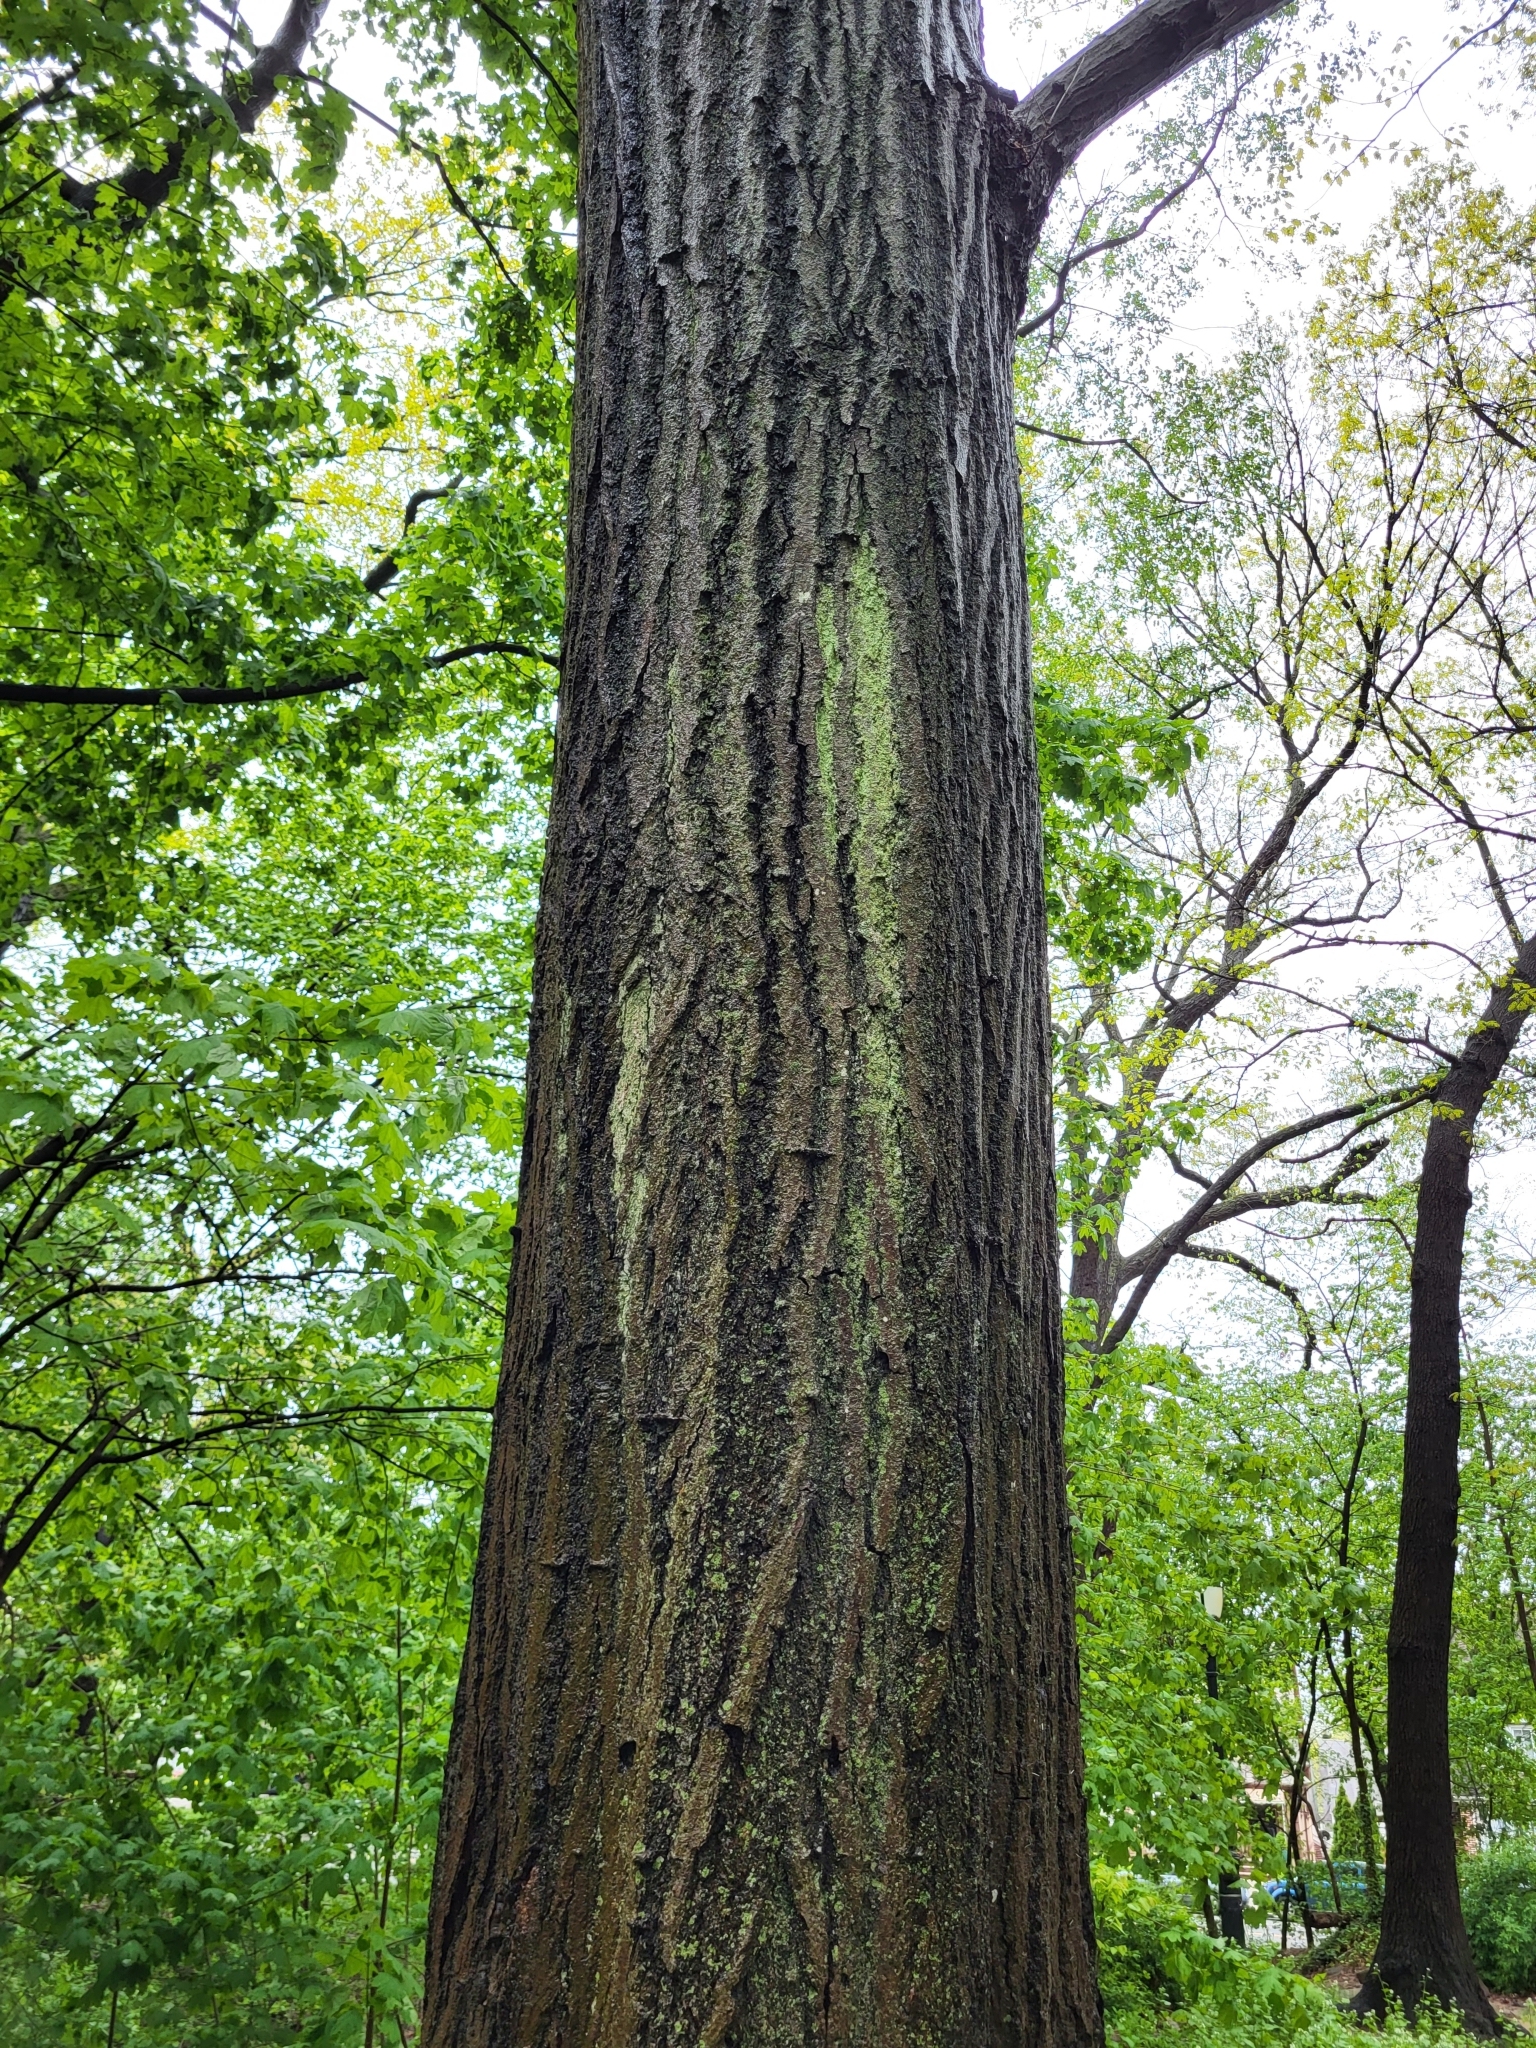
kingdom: Plantae
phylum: Tracheophyta
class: Magnoliopsida
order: Fagales
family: Fagaceae
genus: Quercus
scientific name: Quercus rubra
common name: Red oak
